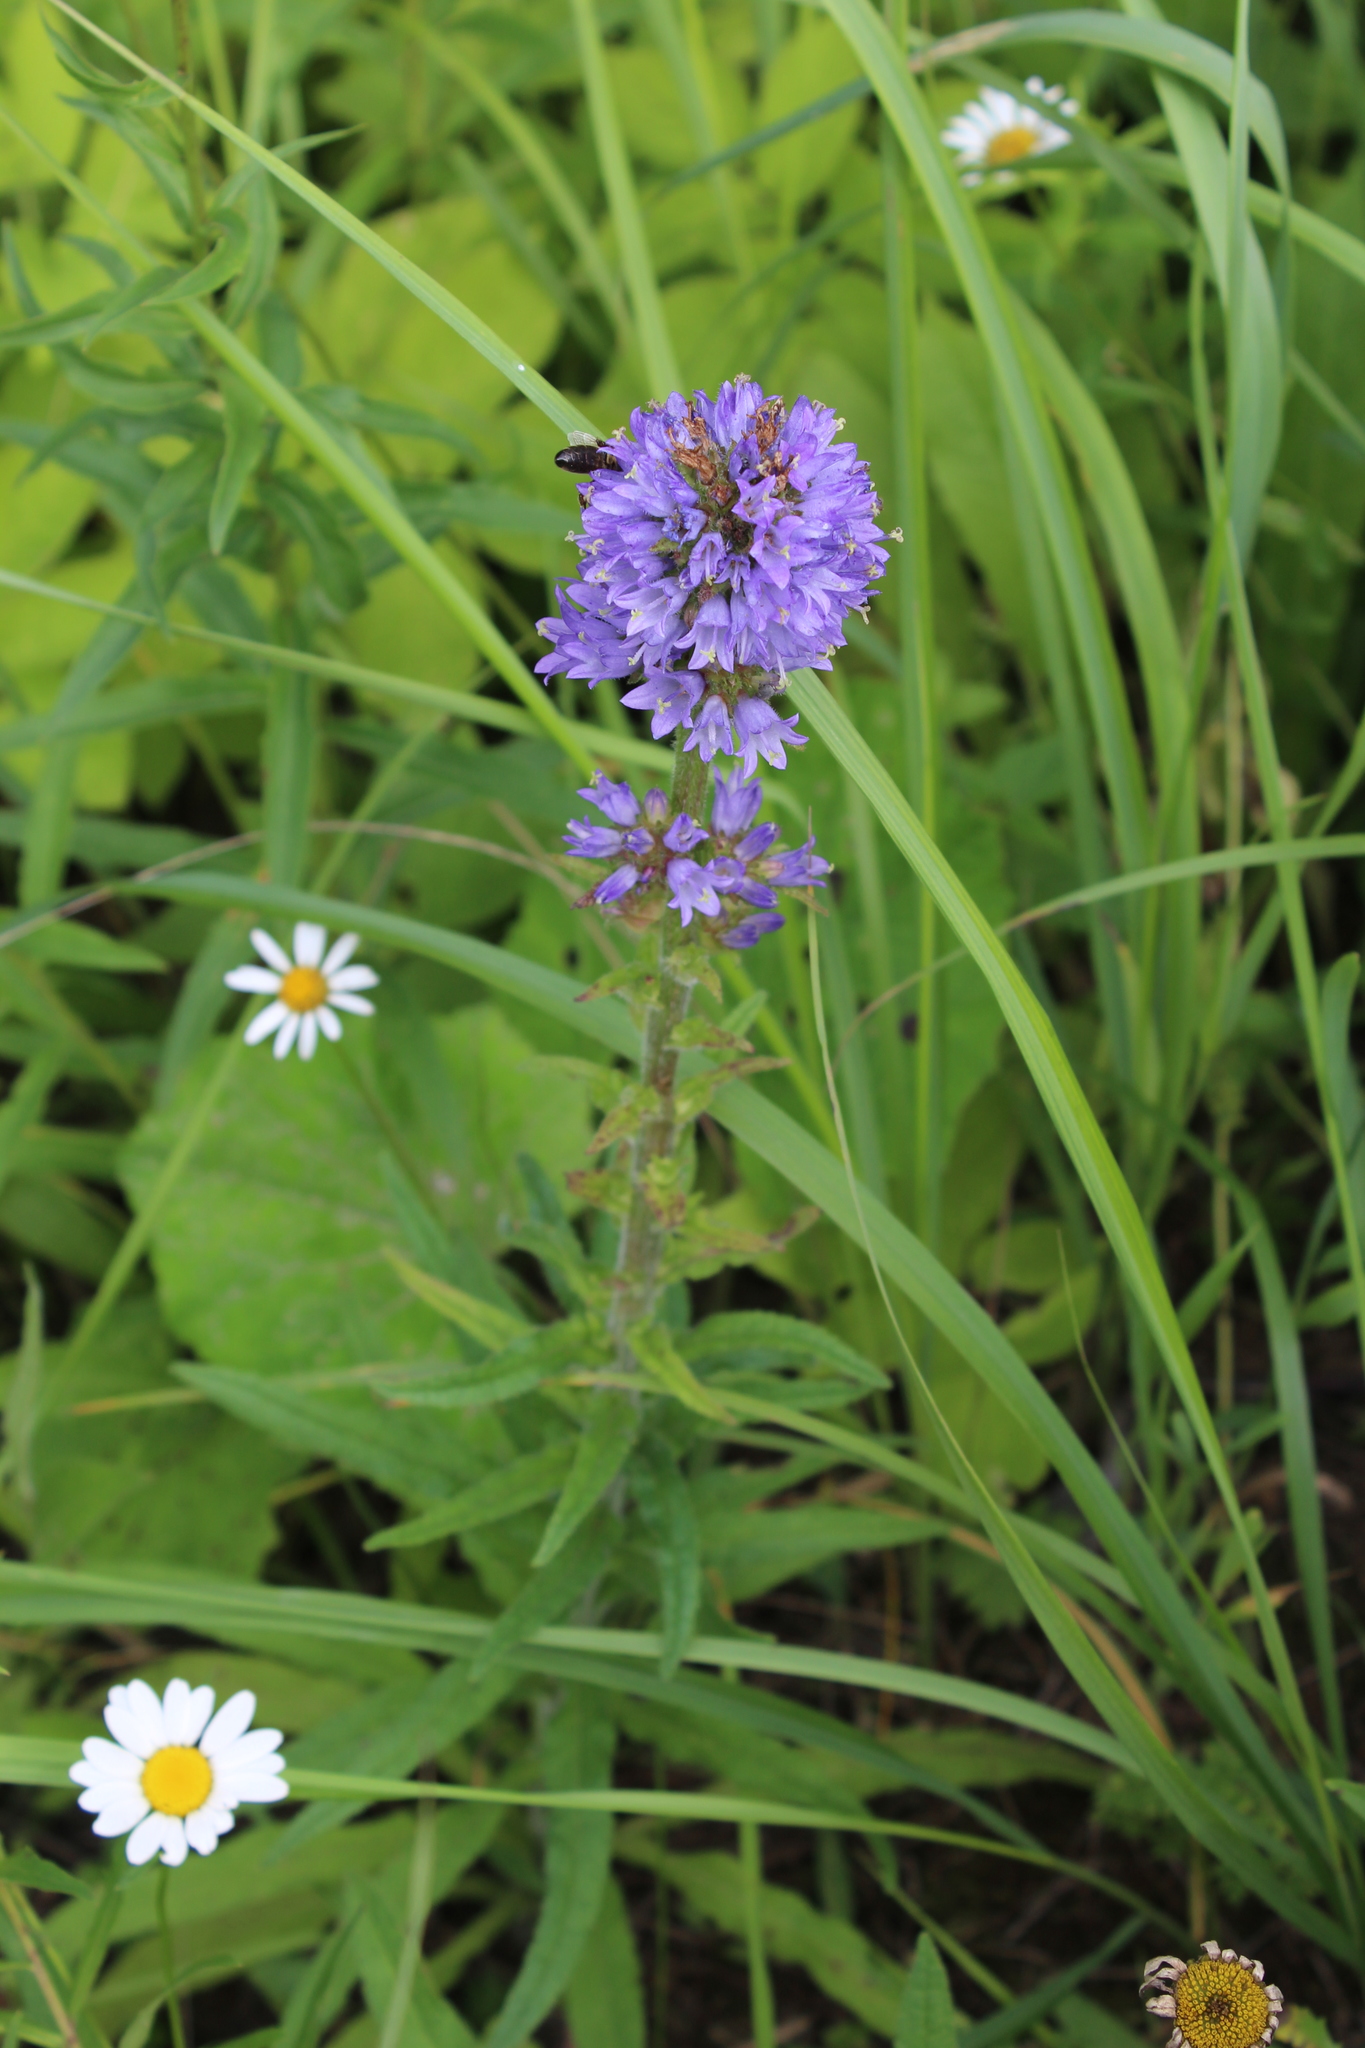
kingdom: Plantae
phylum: Tracheophyta
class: Magnoliopsida
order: Asterales
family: Campanulaceae
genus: Campanula
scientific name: Campanula cervicaria
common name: Bristly bellflower
